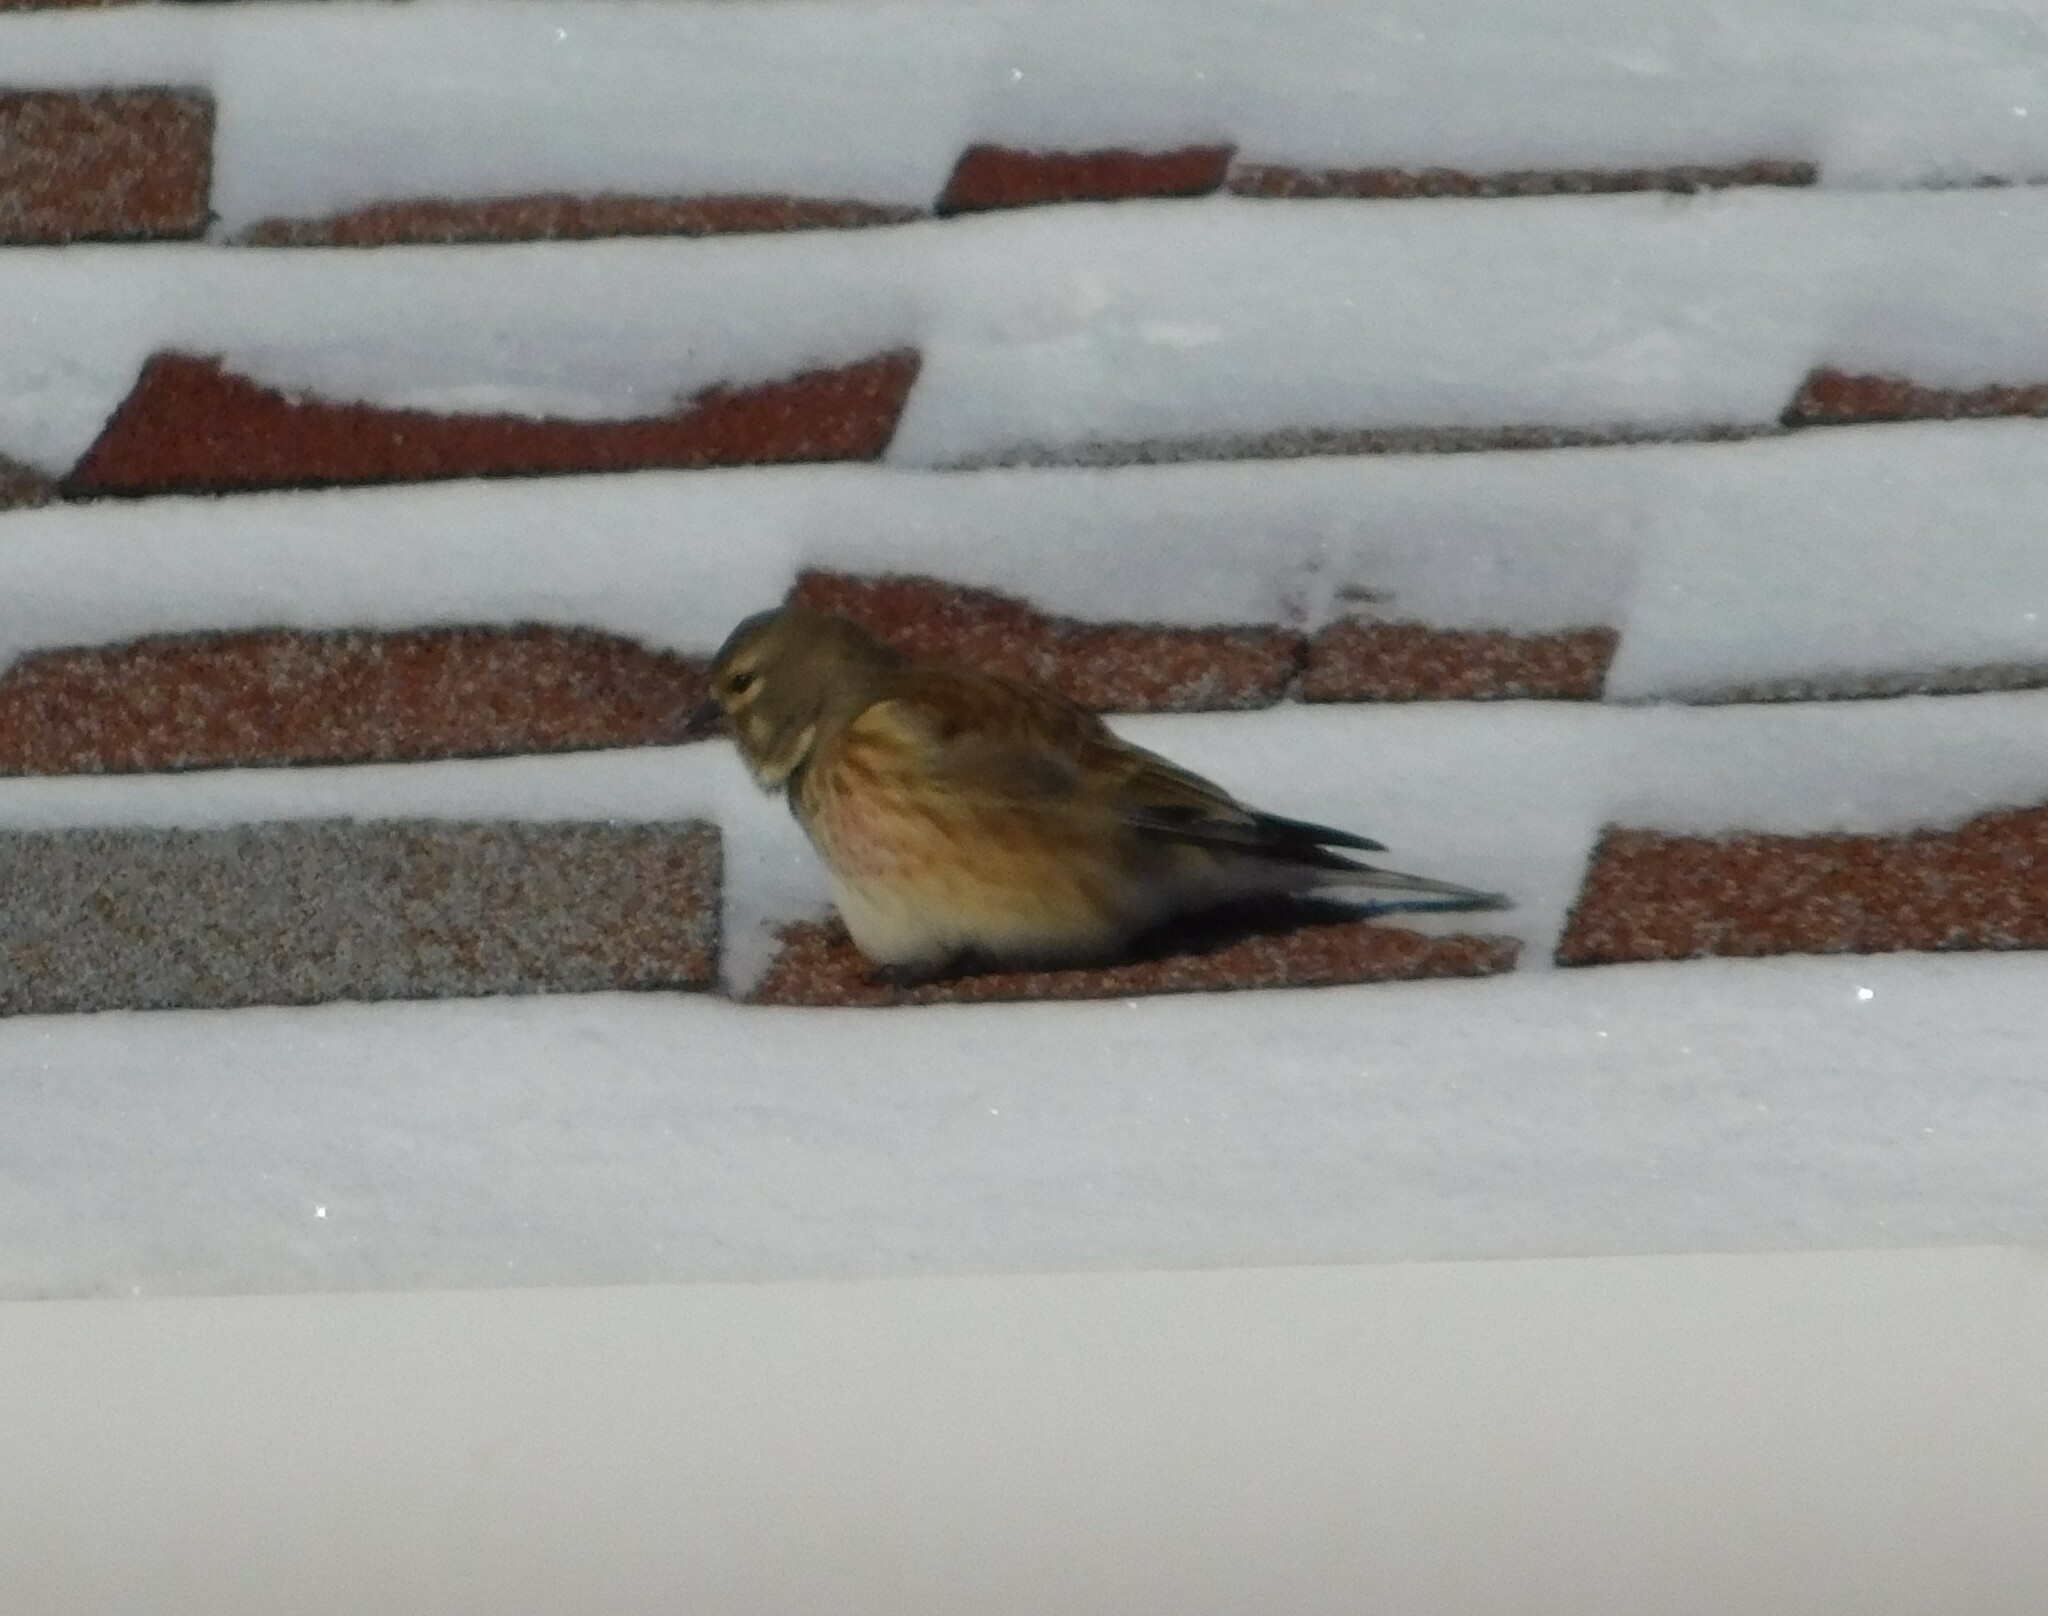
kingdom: Animalia
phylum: Chordata
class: Aves
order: Passeriformes
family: Fringillidae
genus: Linaria
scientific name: Linaria cannabina
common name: Common linnet
